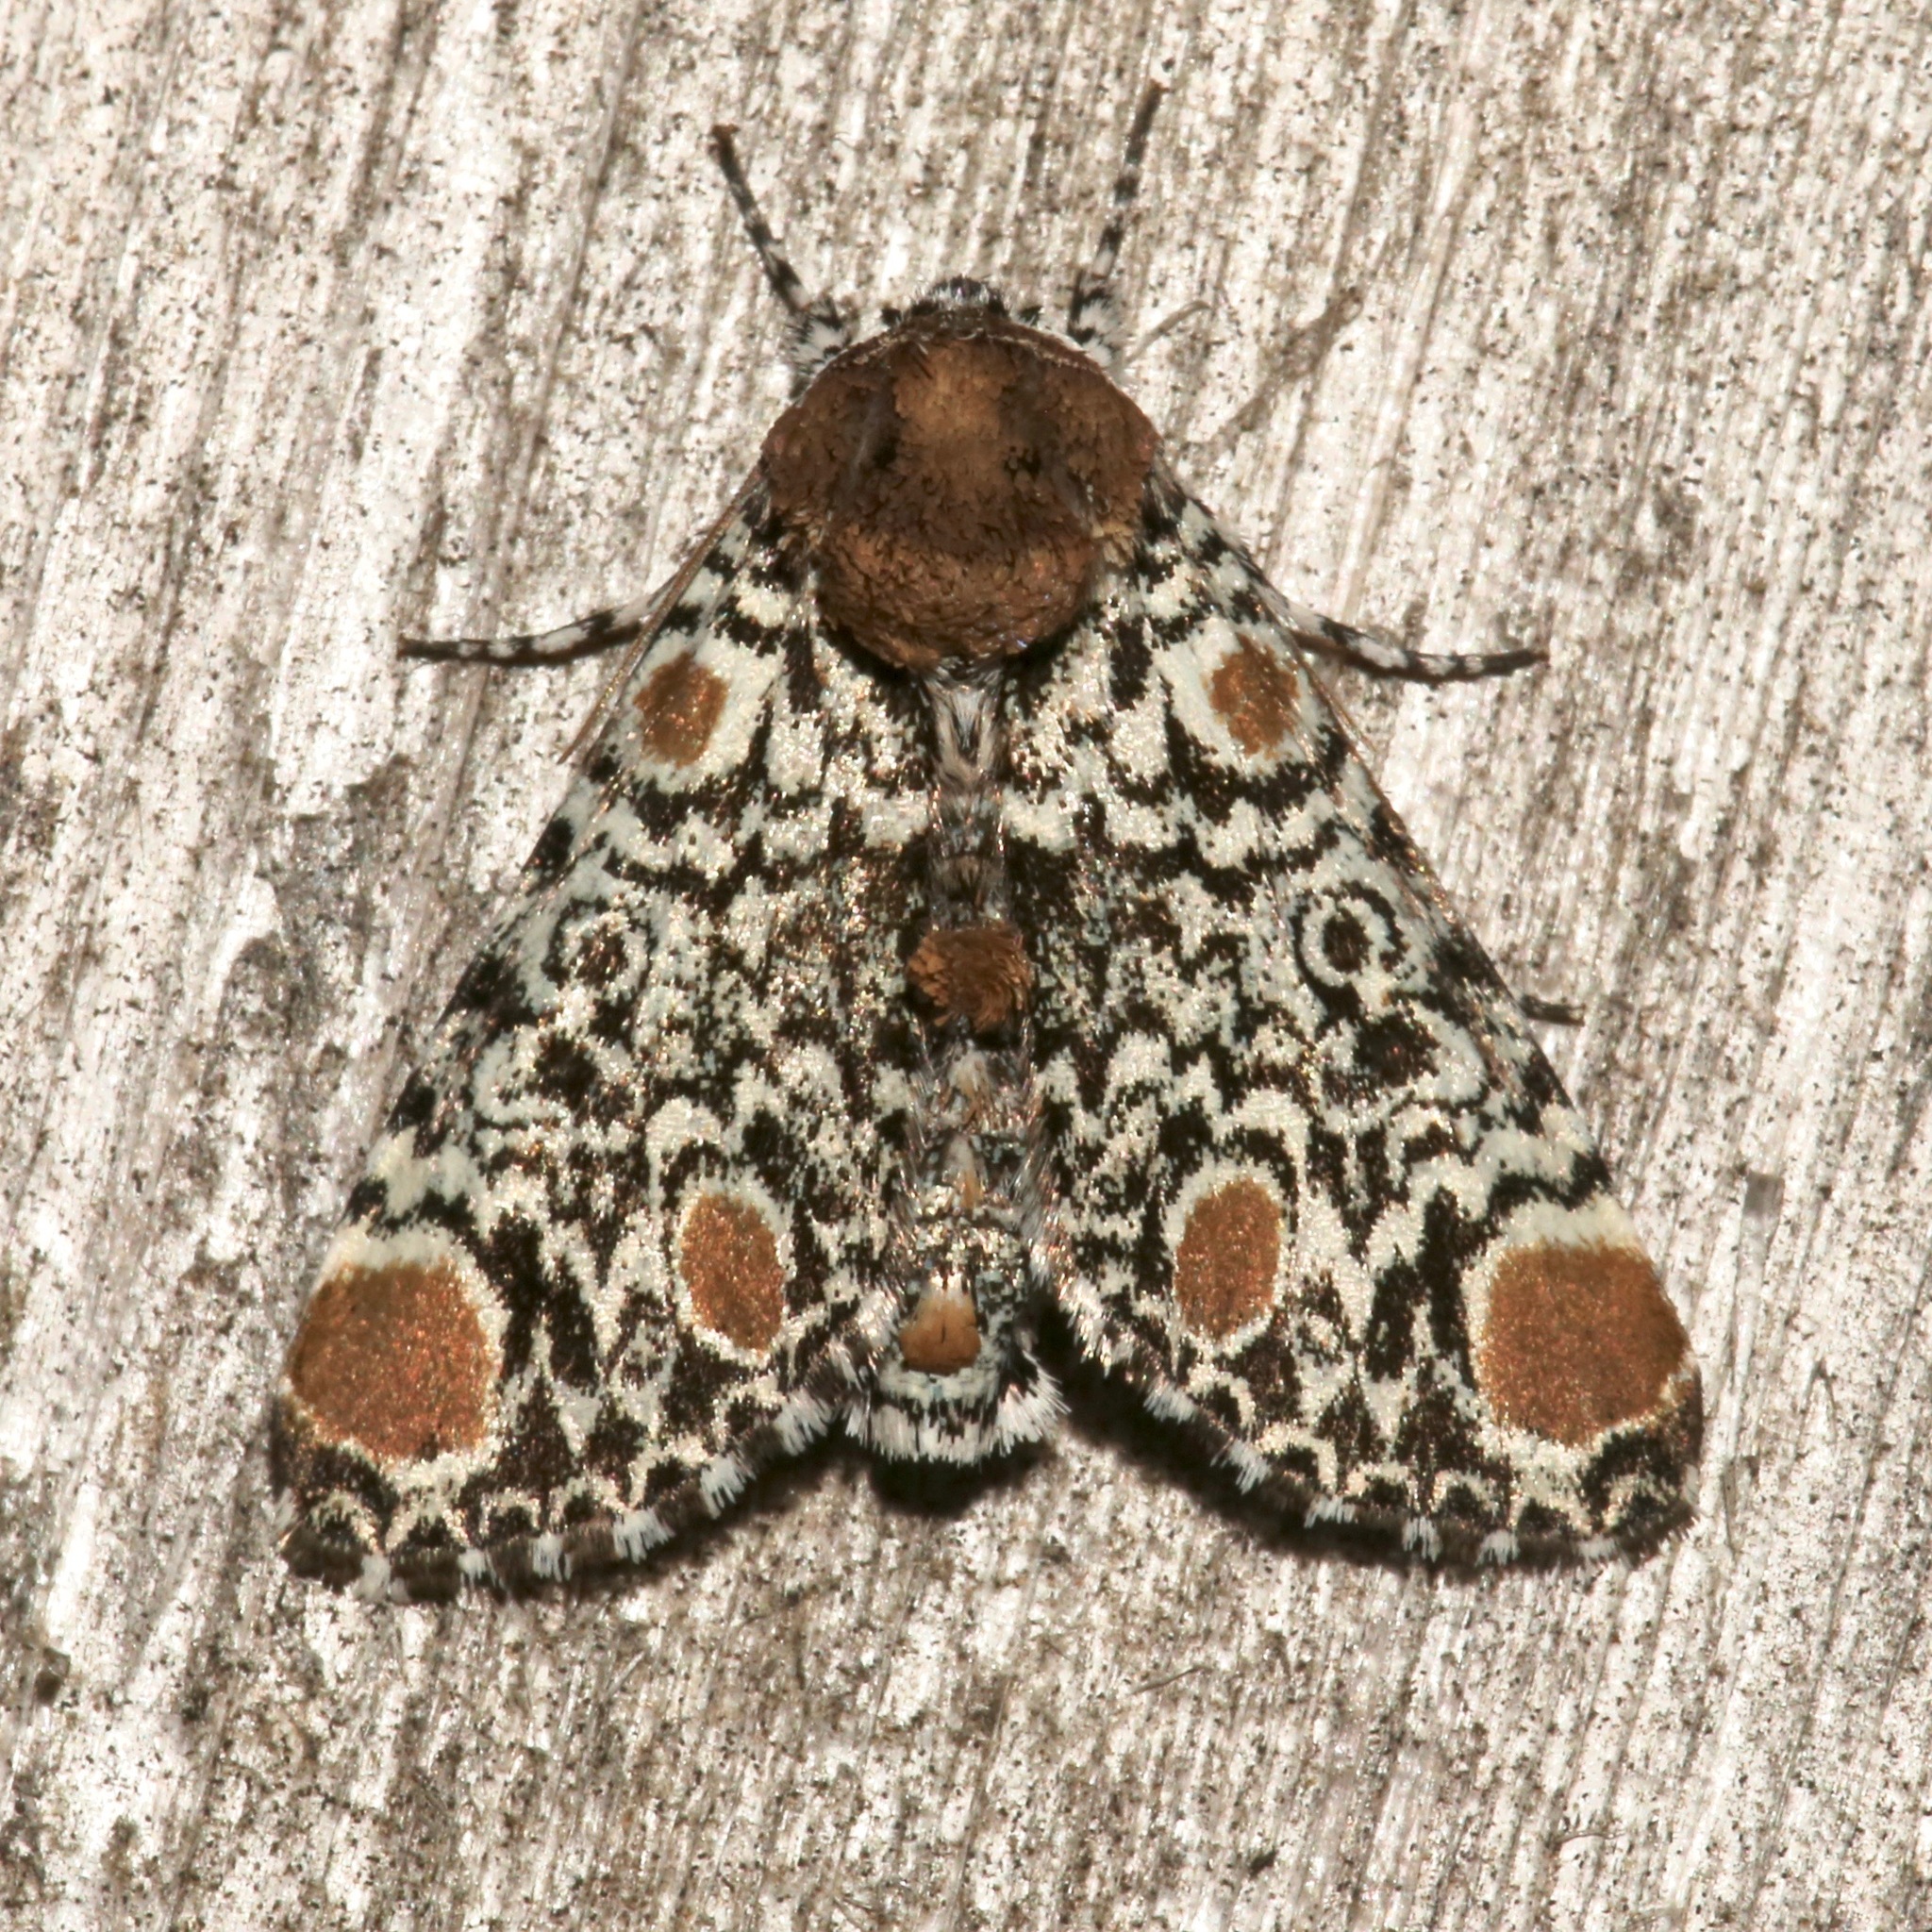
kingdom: Animalia
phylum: Arthropoda
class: Insecta
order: Lepidoptera
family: Noctuidae
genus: Harrisimemna
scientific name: Harrisimemna trisignata
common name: Harris threespot
